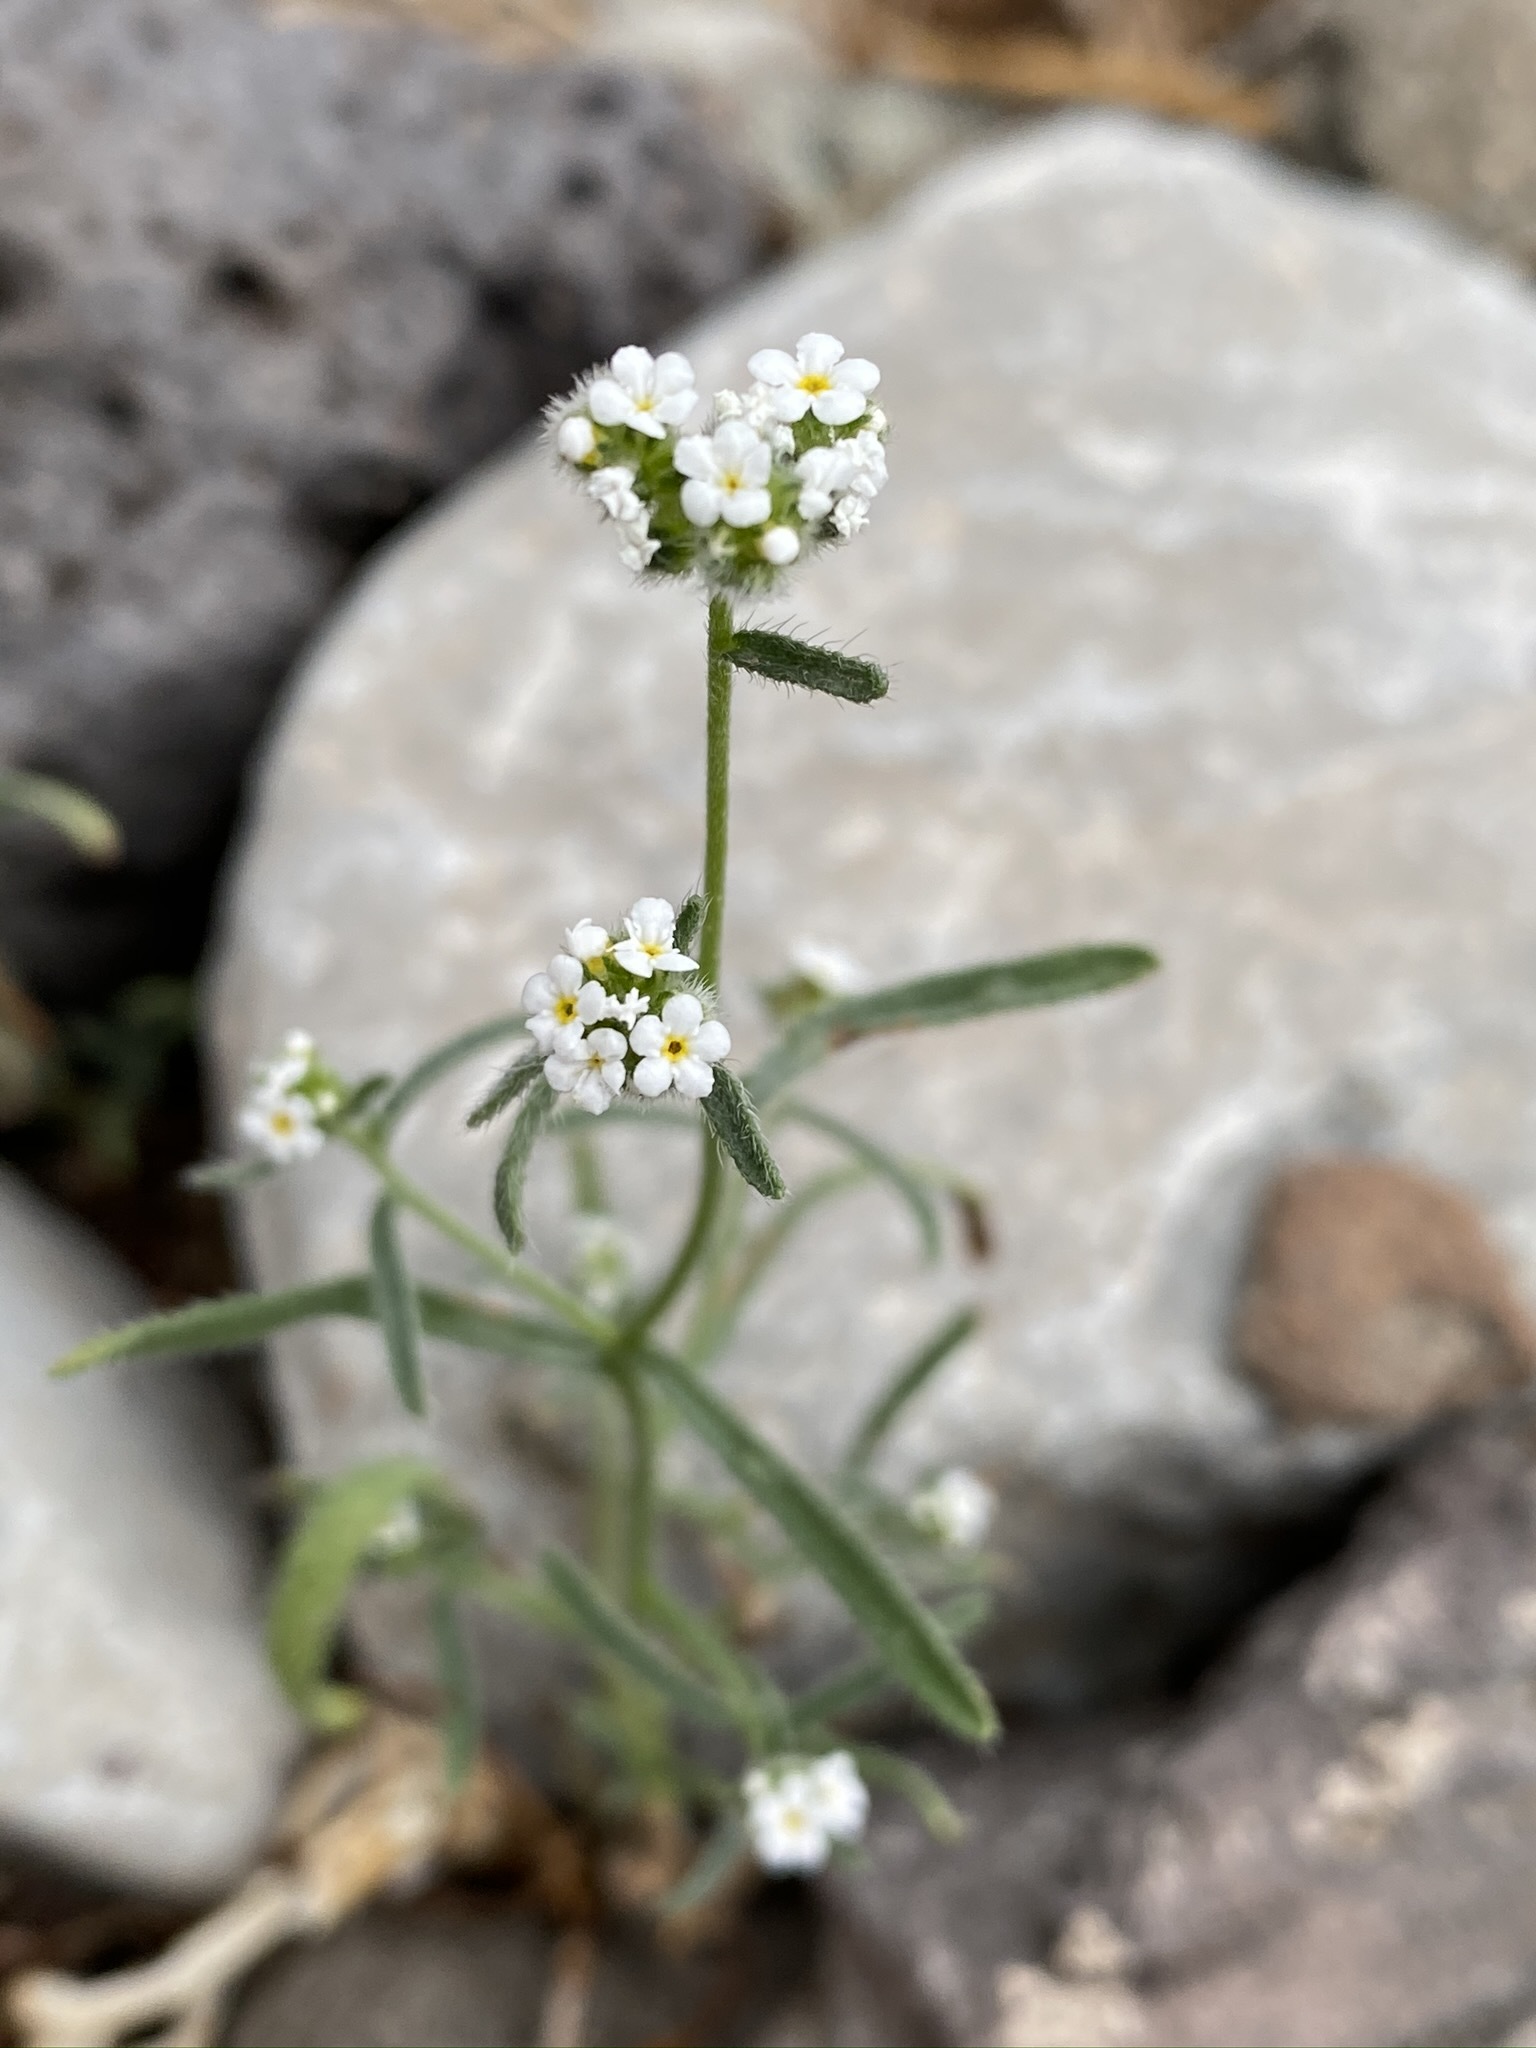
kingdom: Plantae
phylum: Tracheophyta
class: Magnoliopsida
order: Boraginales
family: Boraginaceae
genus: Cryptantha
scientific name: Cryptantha utahensis
